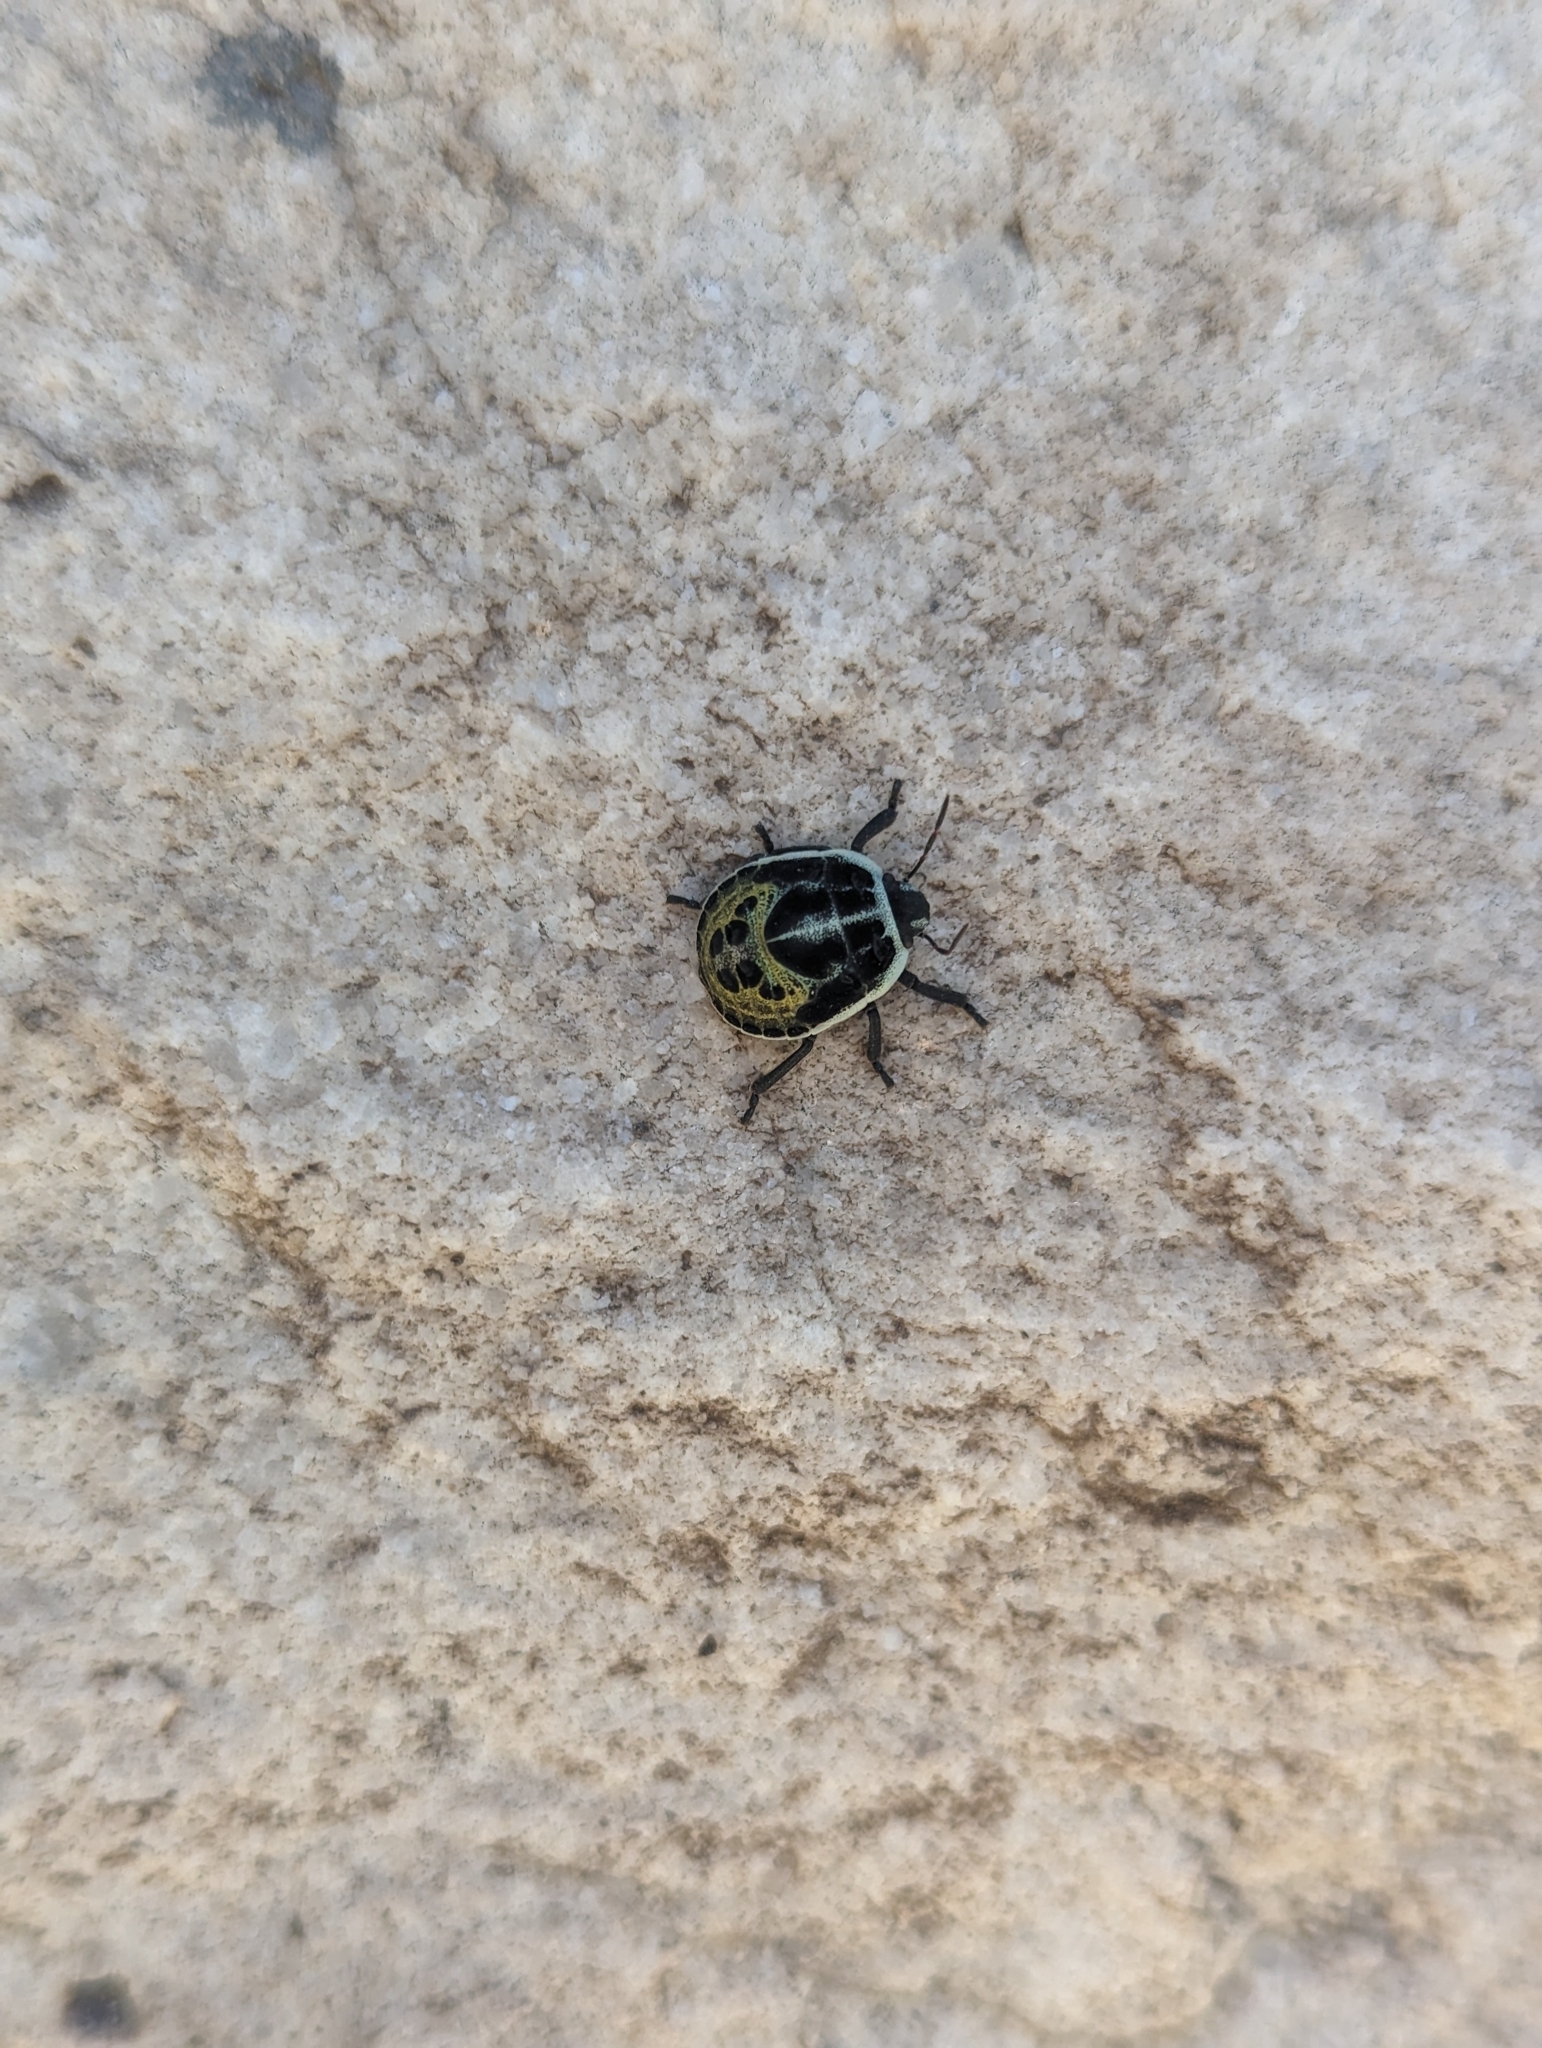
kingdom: Animalia
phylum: Arthropoda
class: Insecta
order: Hemiptera
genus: Deroplax
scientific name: Deroplax silphoides
